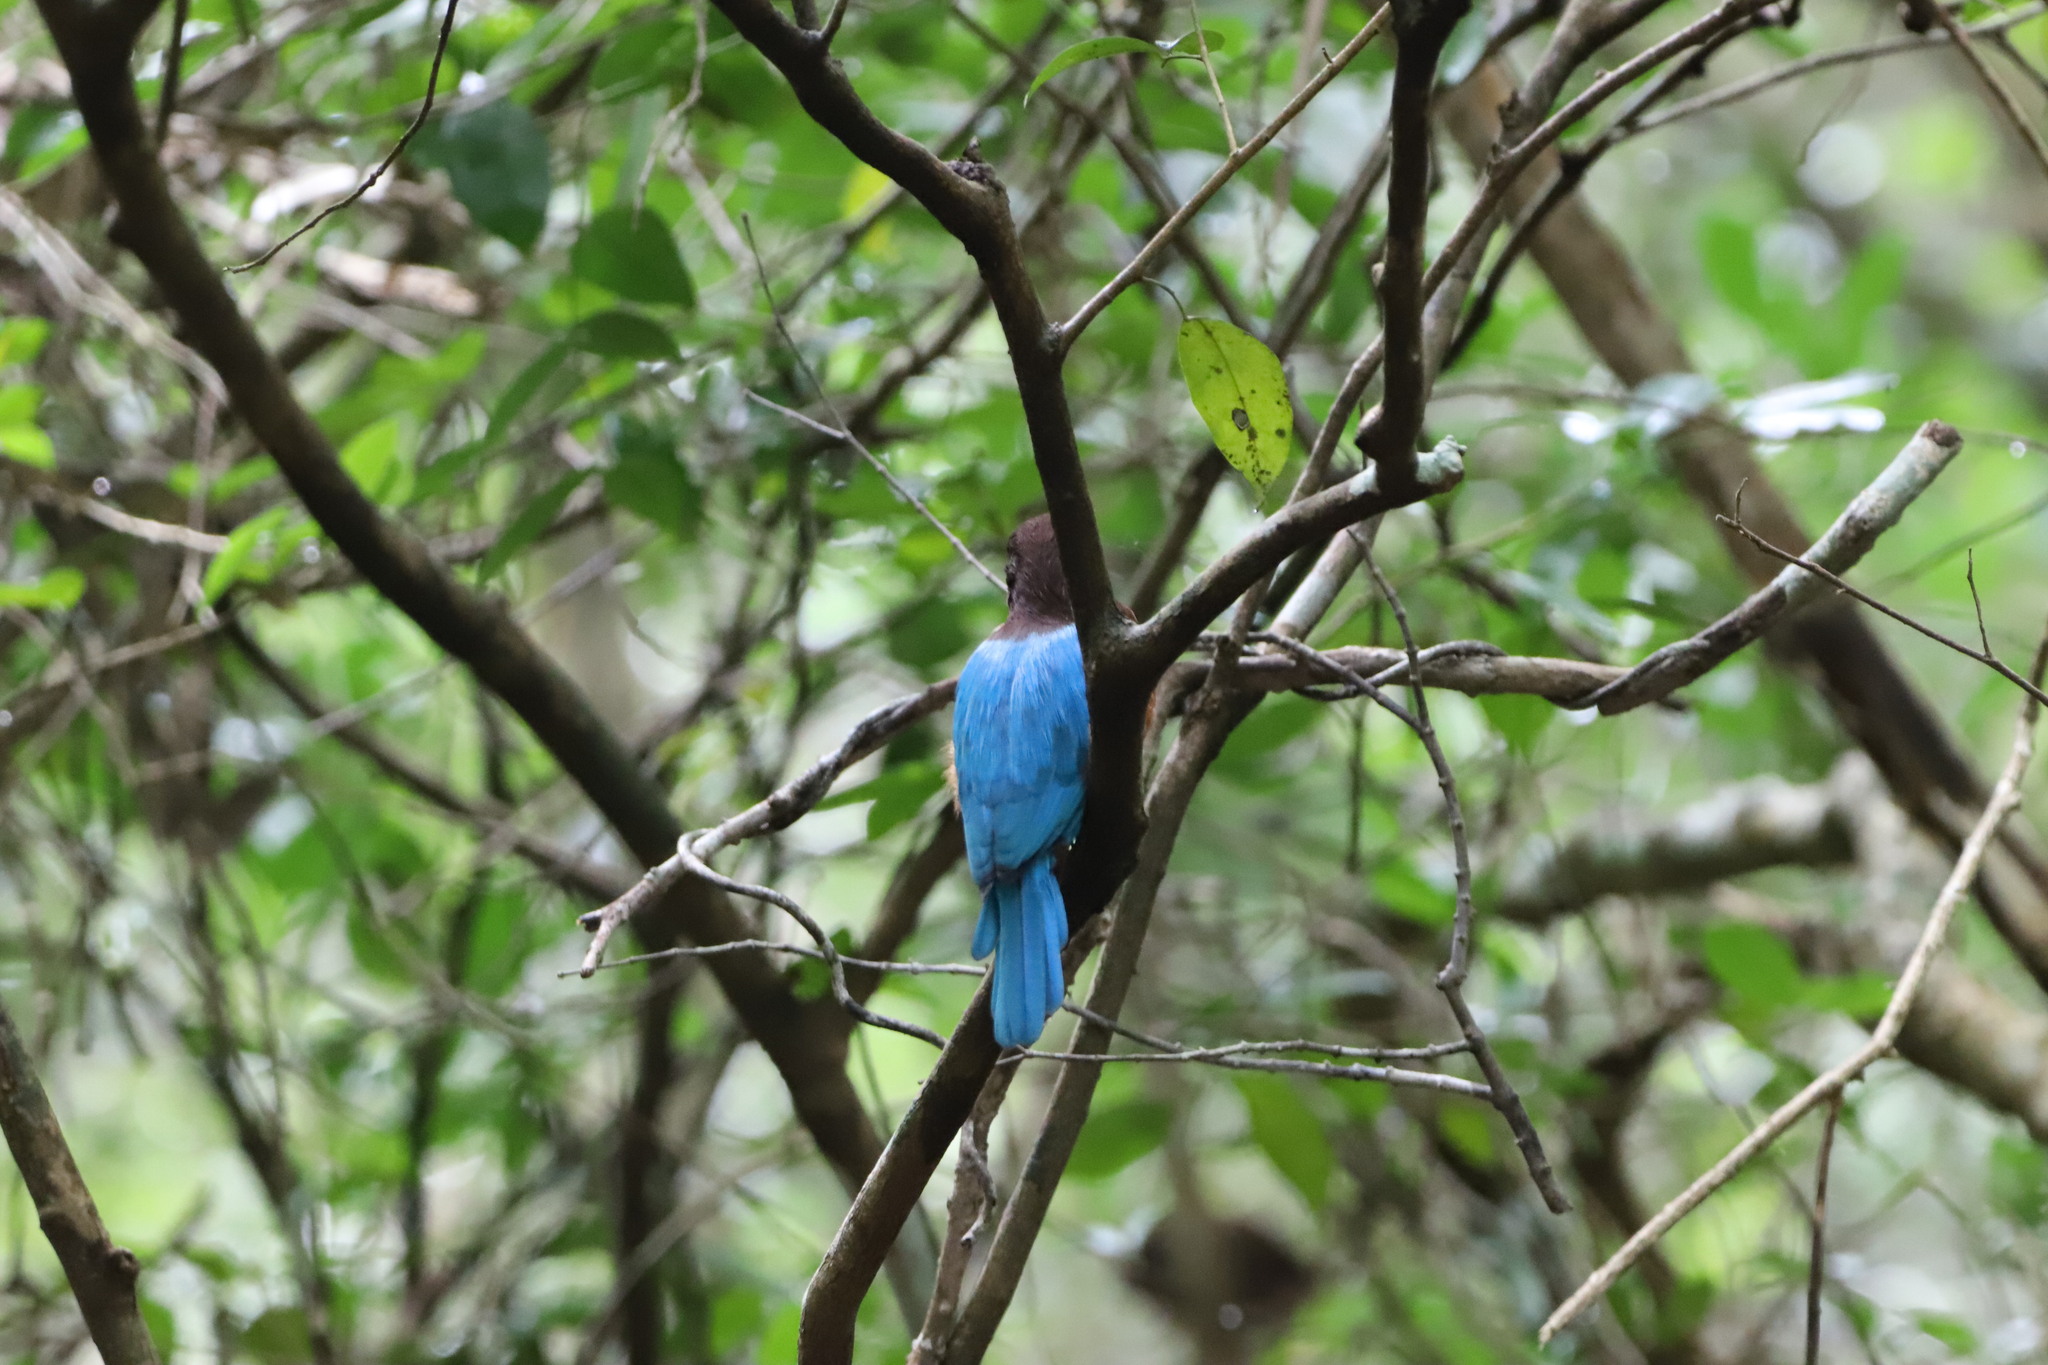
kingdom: Animalia
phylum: Chordata
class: Aves
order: Coraciiformes
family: Alcedinidae
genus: Halcyon
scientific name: Halcyon smyrnensis
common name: White-throated kingfisher
